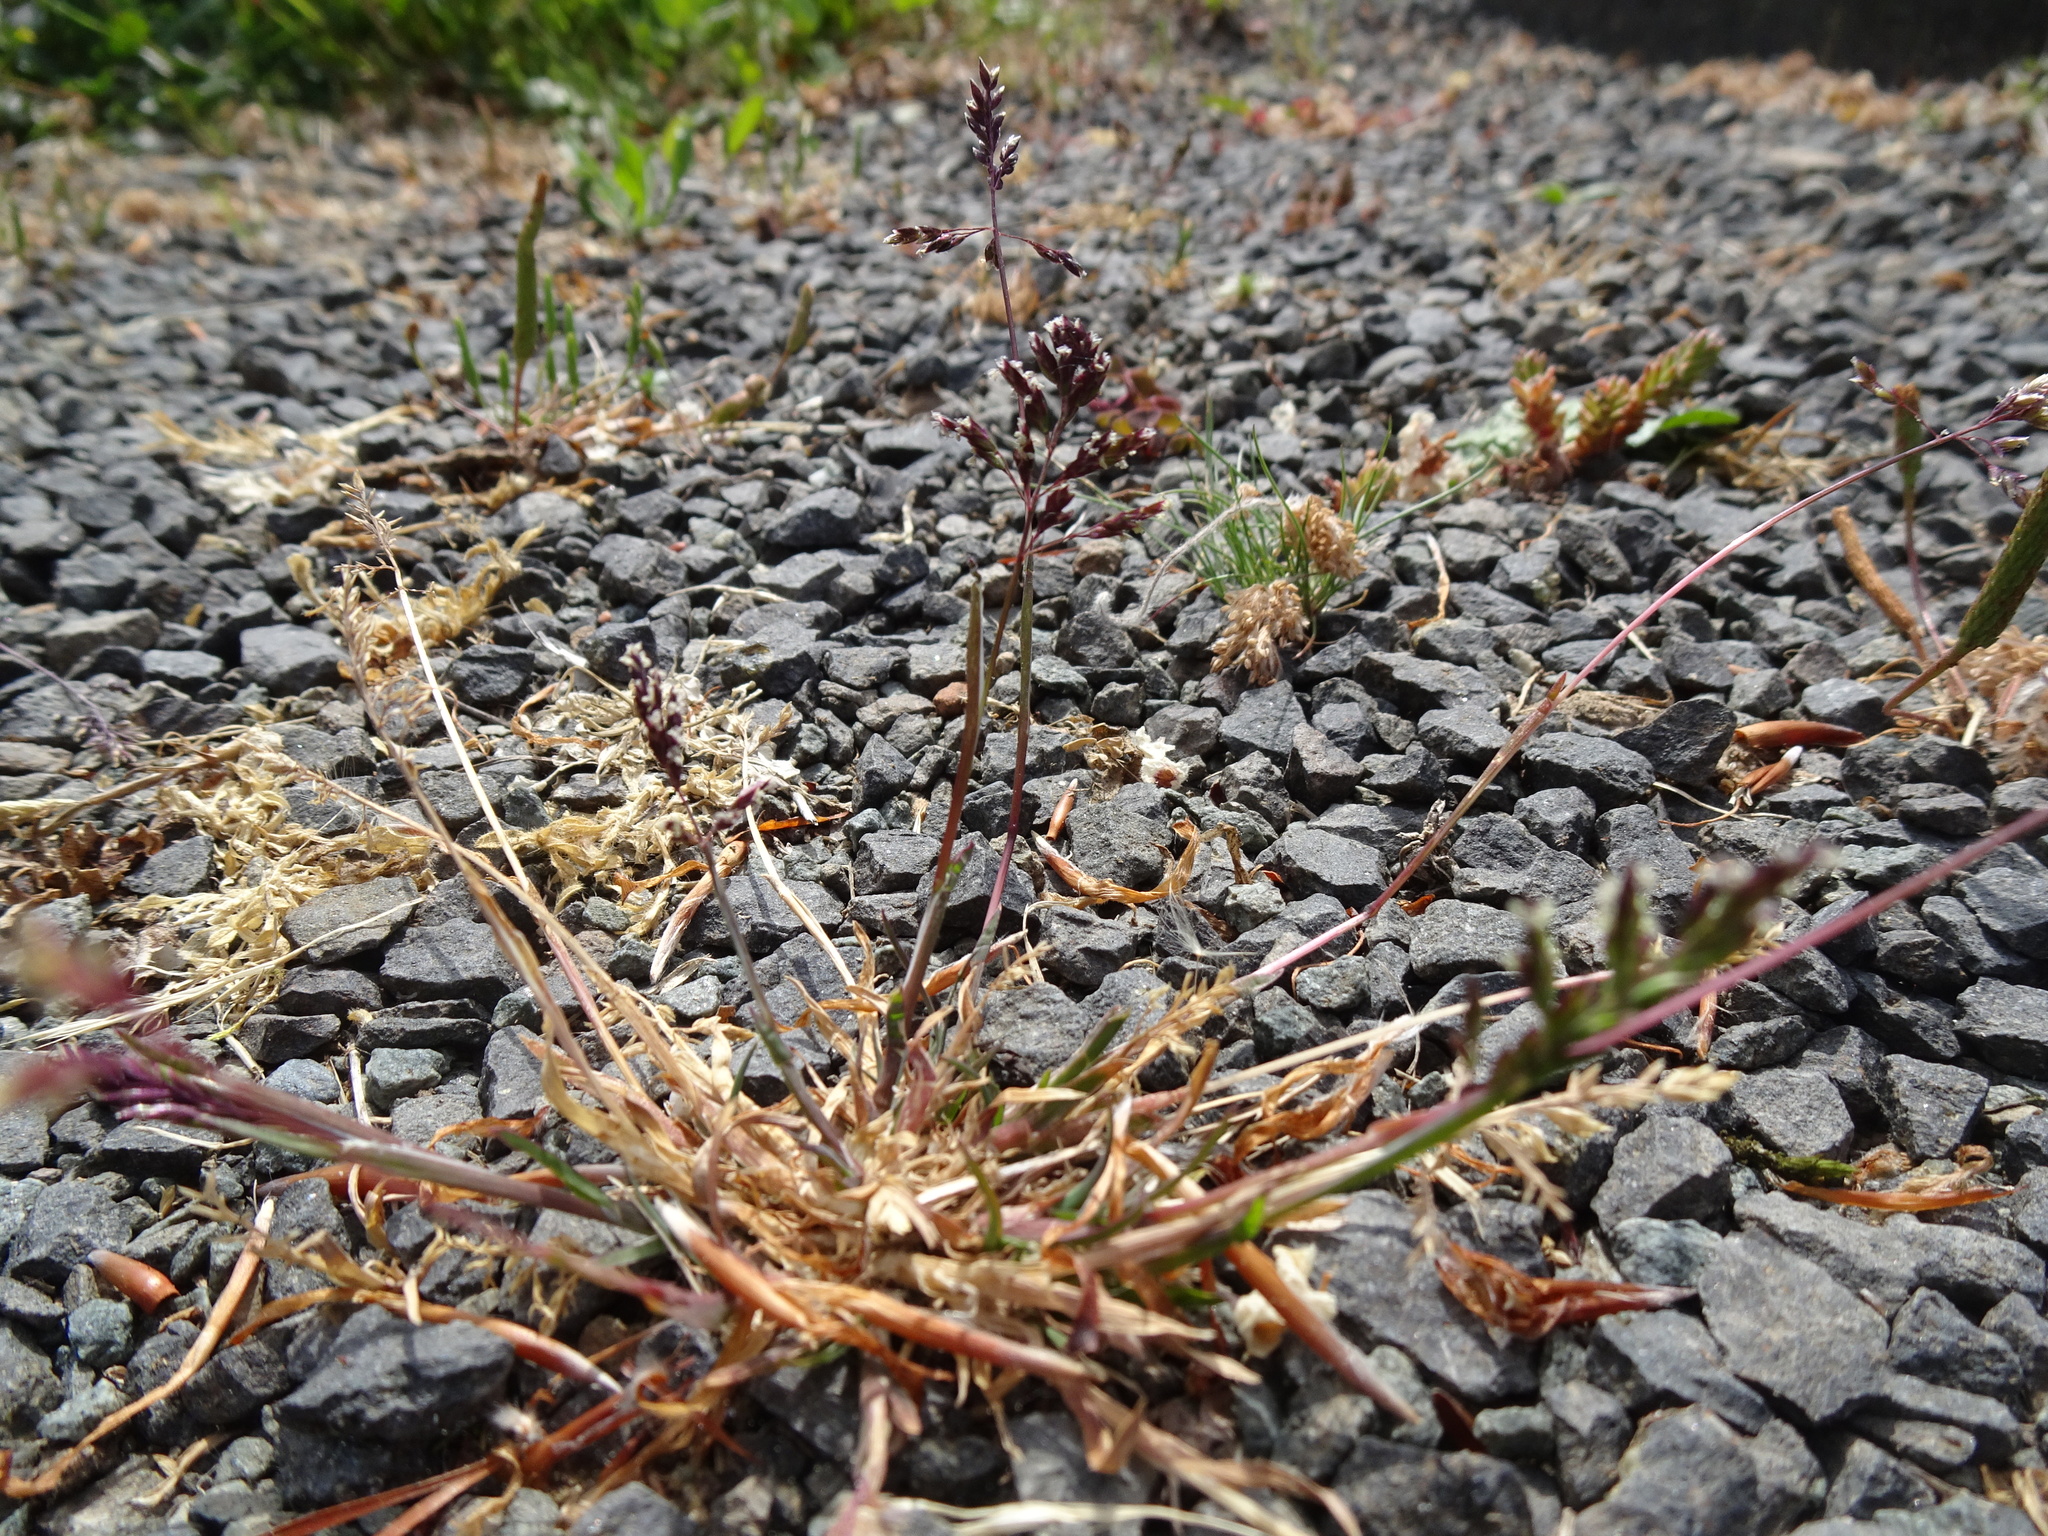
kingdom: Plantae
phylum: Tracheophyta
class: Liliopsida
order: Poales
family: Poaceae
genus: Poa
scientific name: Poa annua
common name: Annual bluegrass
